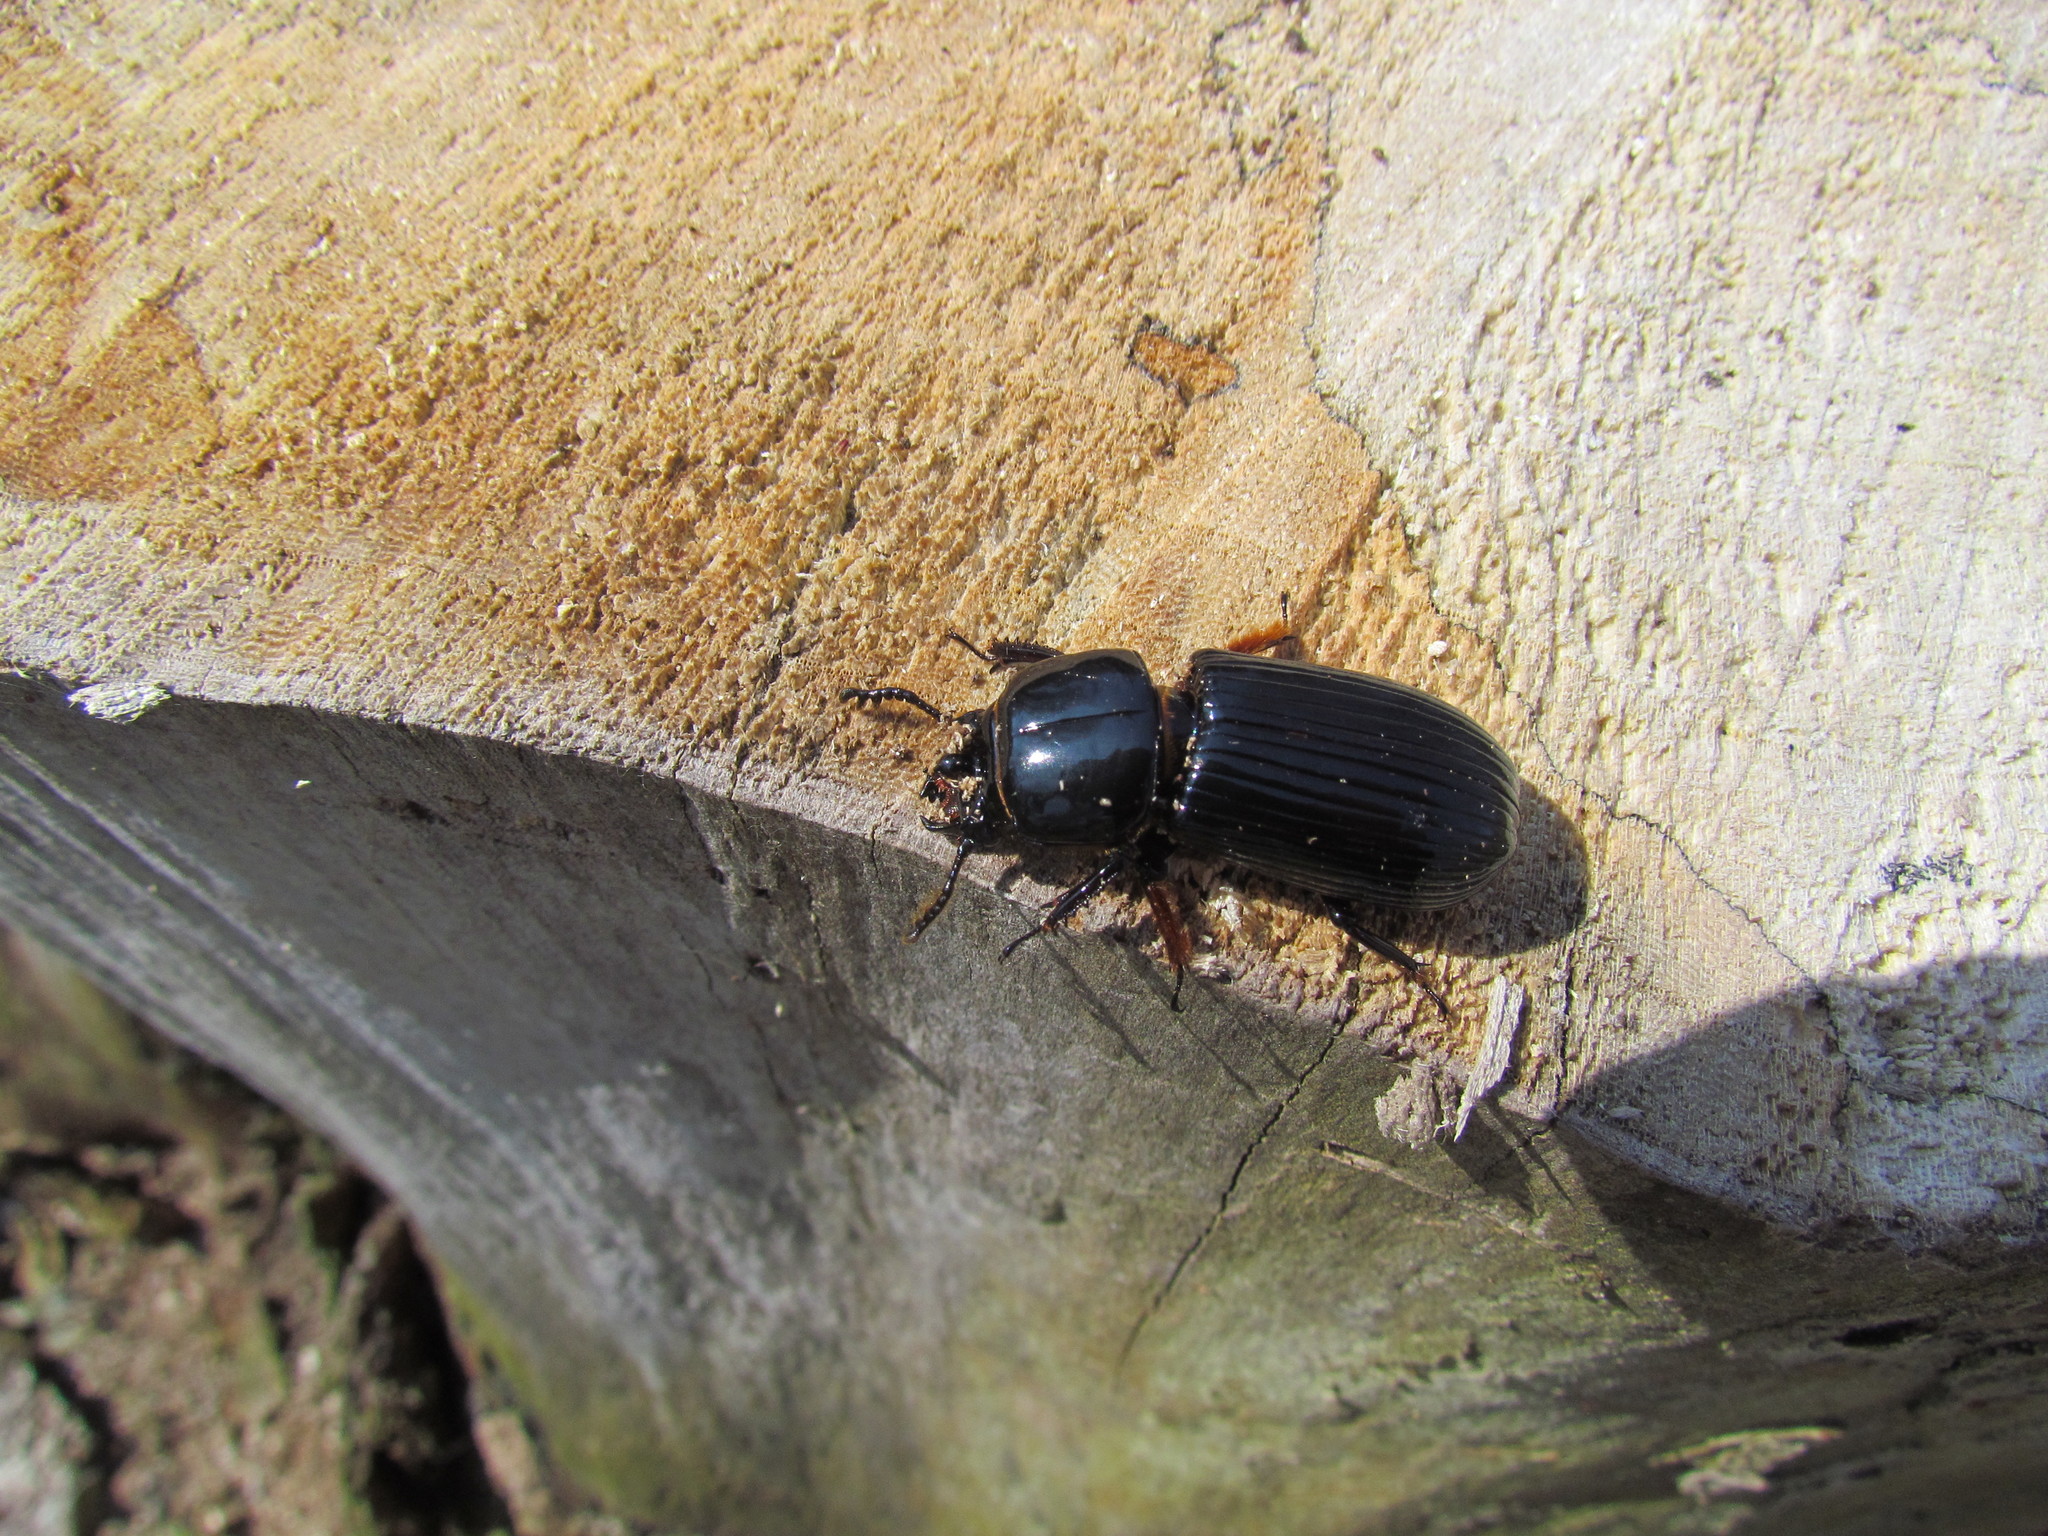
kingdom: Animalia
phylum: Arthropoda
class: Insecta
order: Coleoptera
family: Passalidae
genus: Odontotaenius
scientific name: Odontotaenius disjunctus
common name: Patent leather beetle
